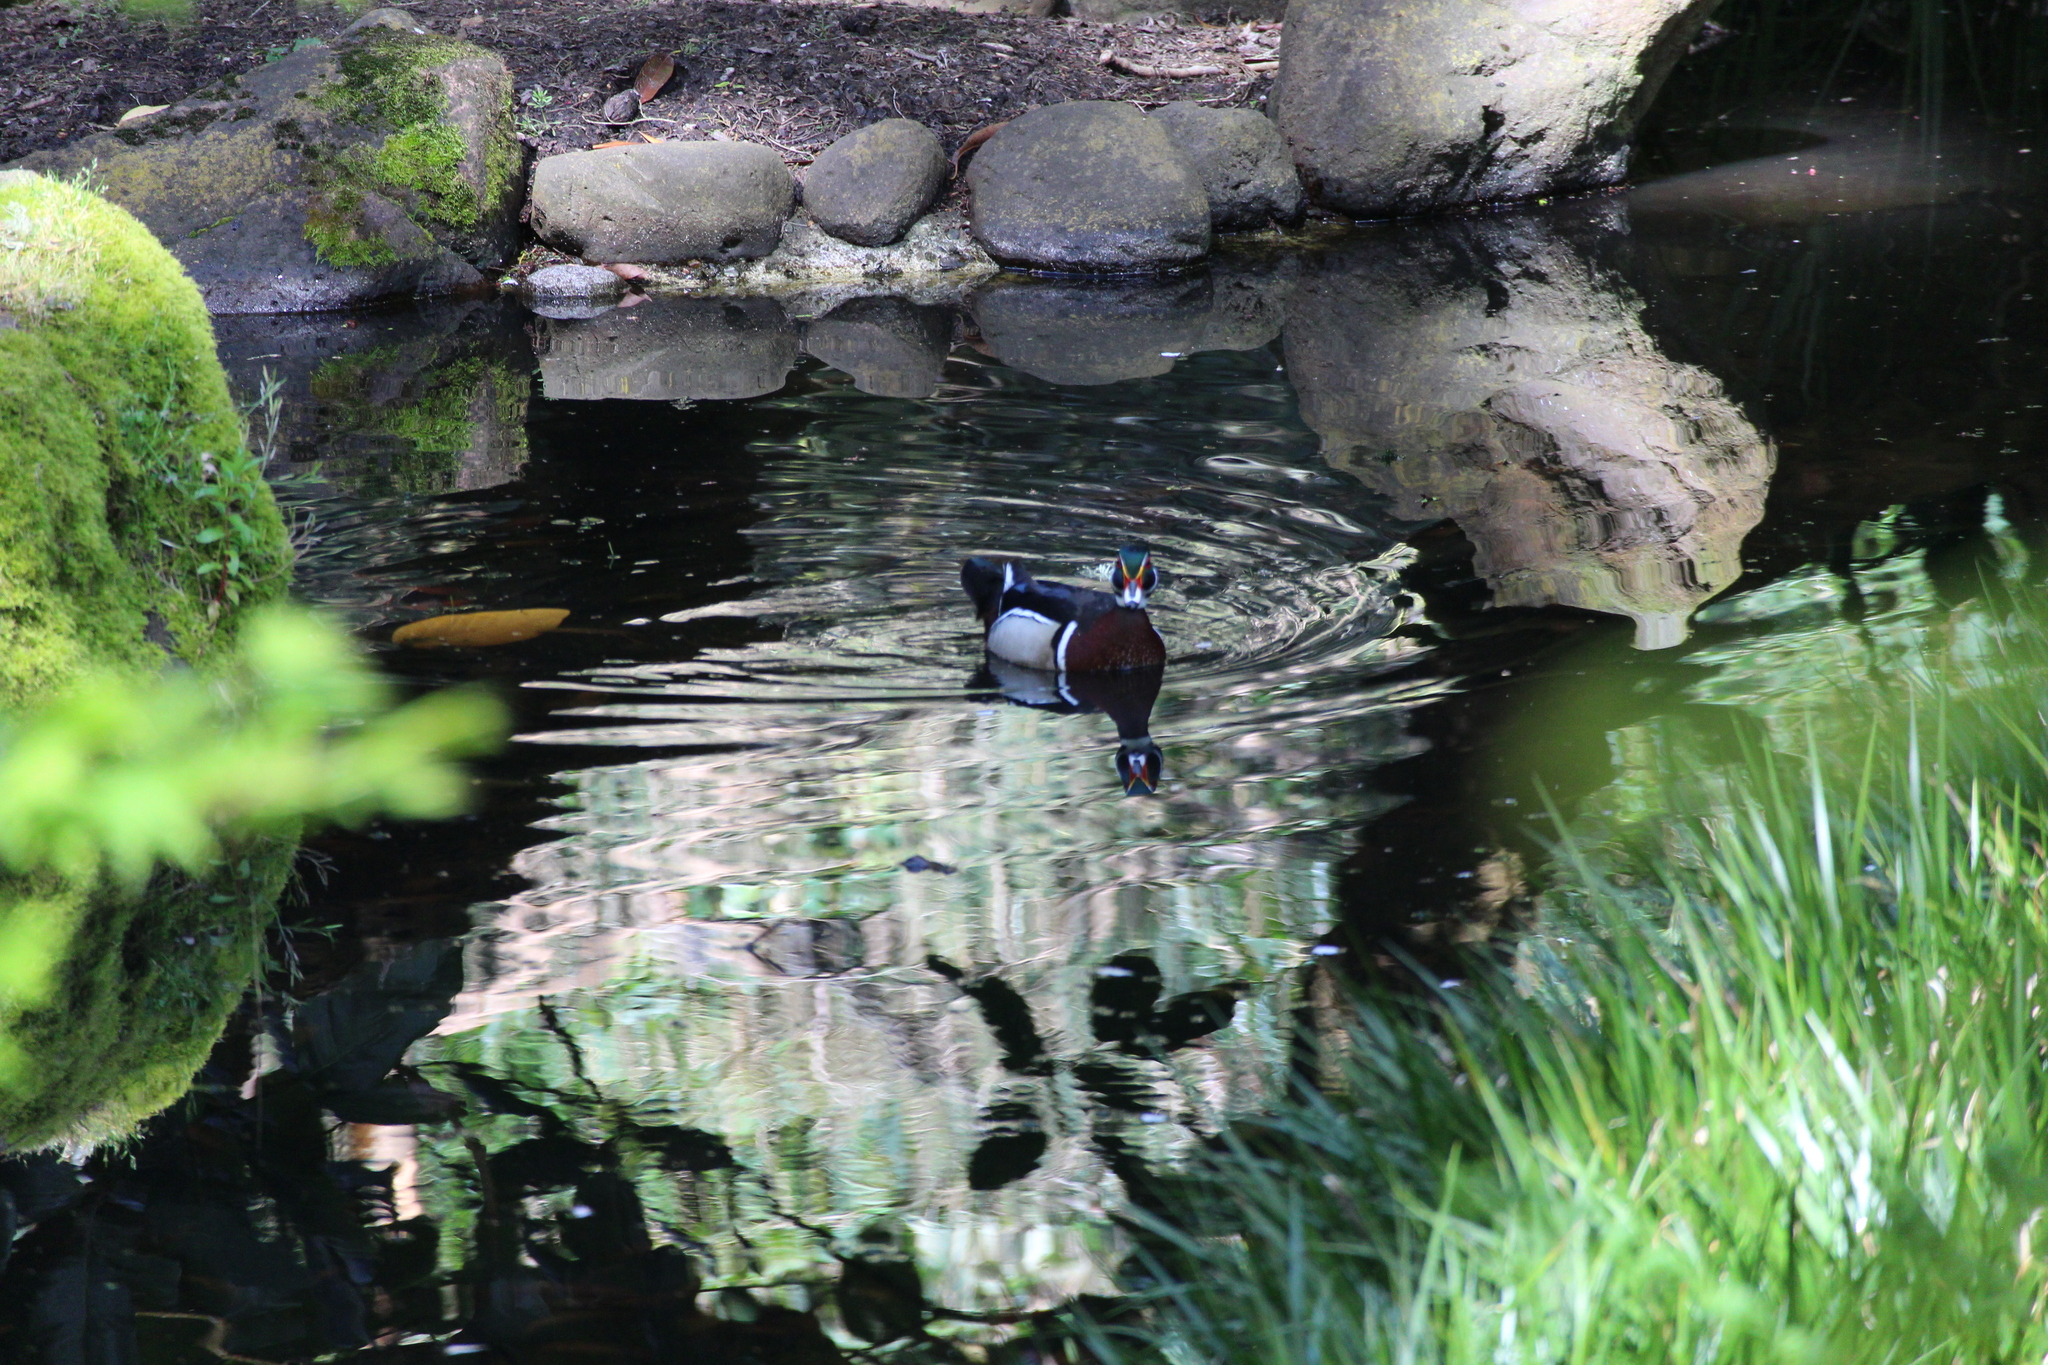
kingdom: Animalia
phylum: Chordata
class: Aves
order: Anseriformes
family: Anatidae
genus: Aix
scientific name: Aix sponsa
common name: Wood duck
